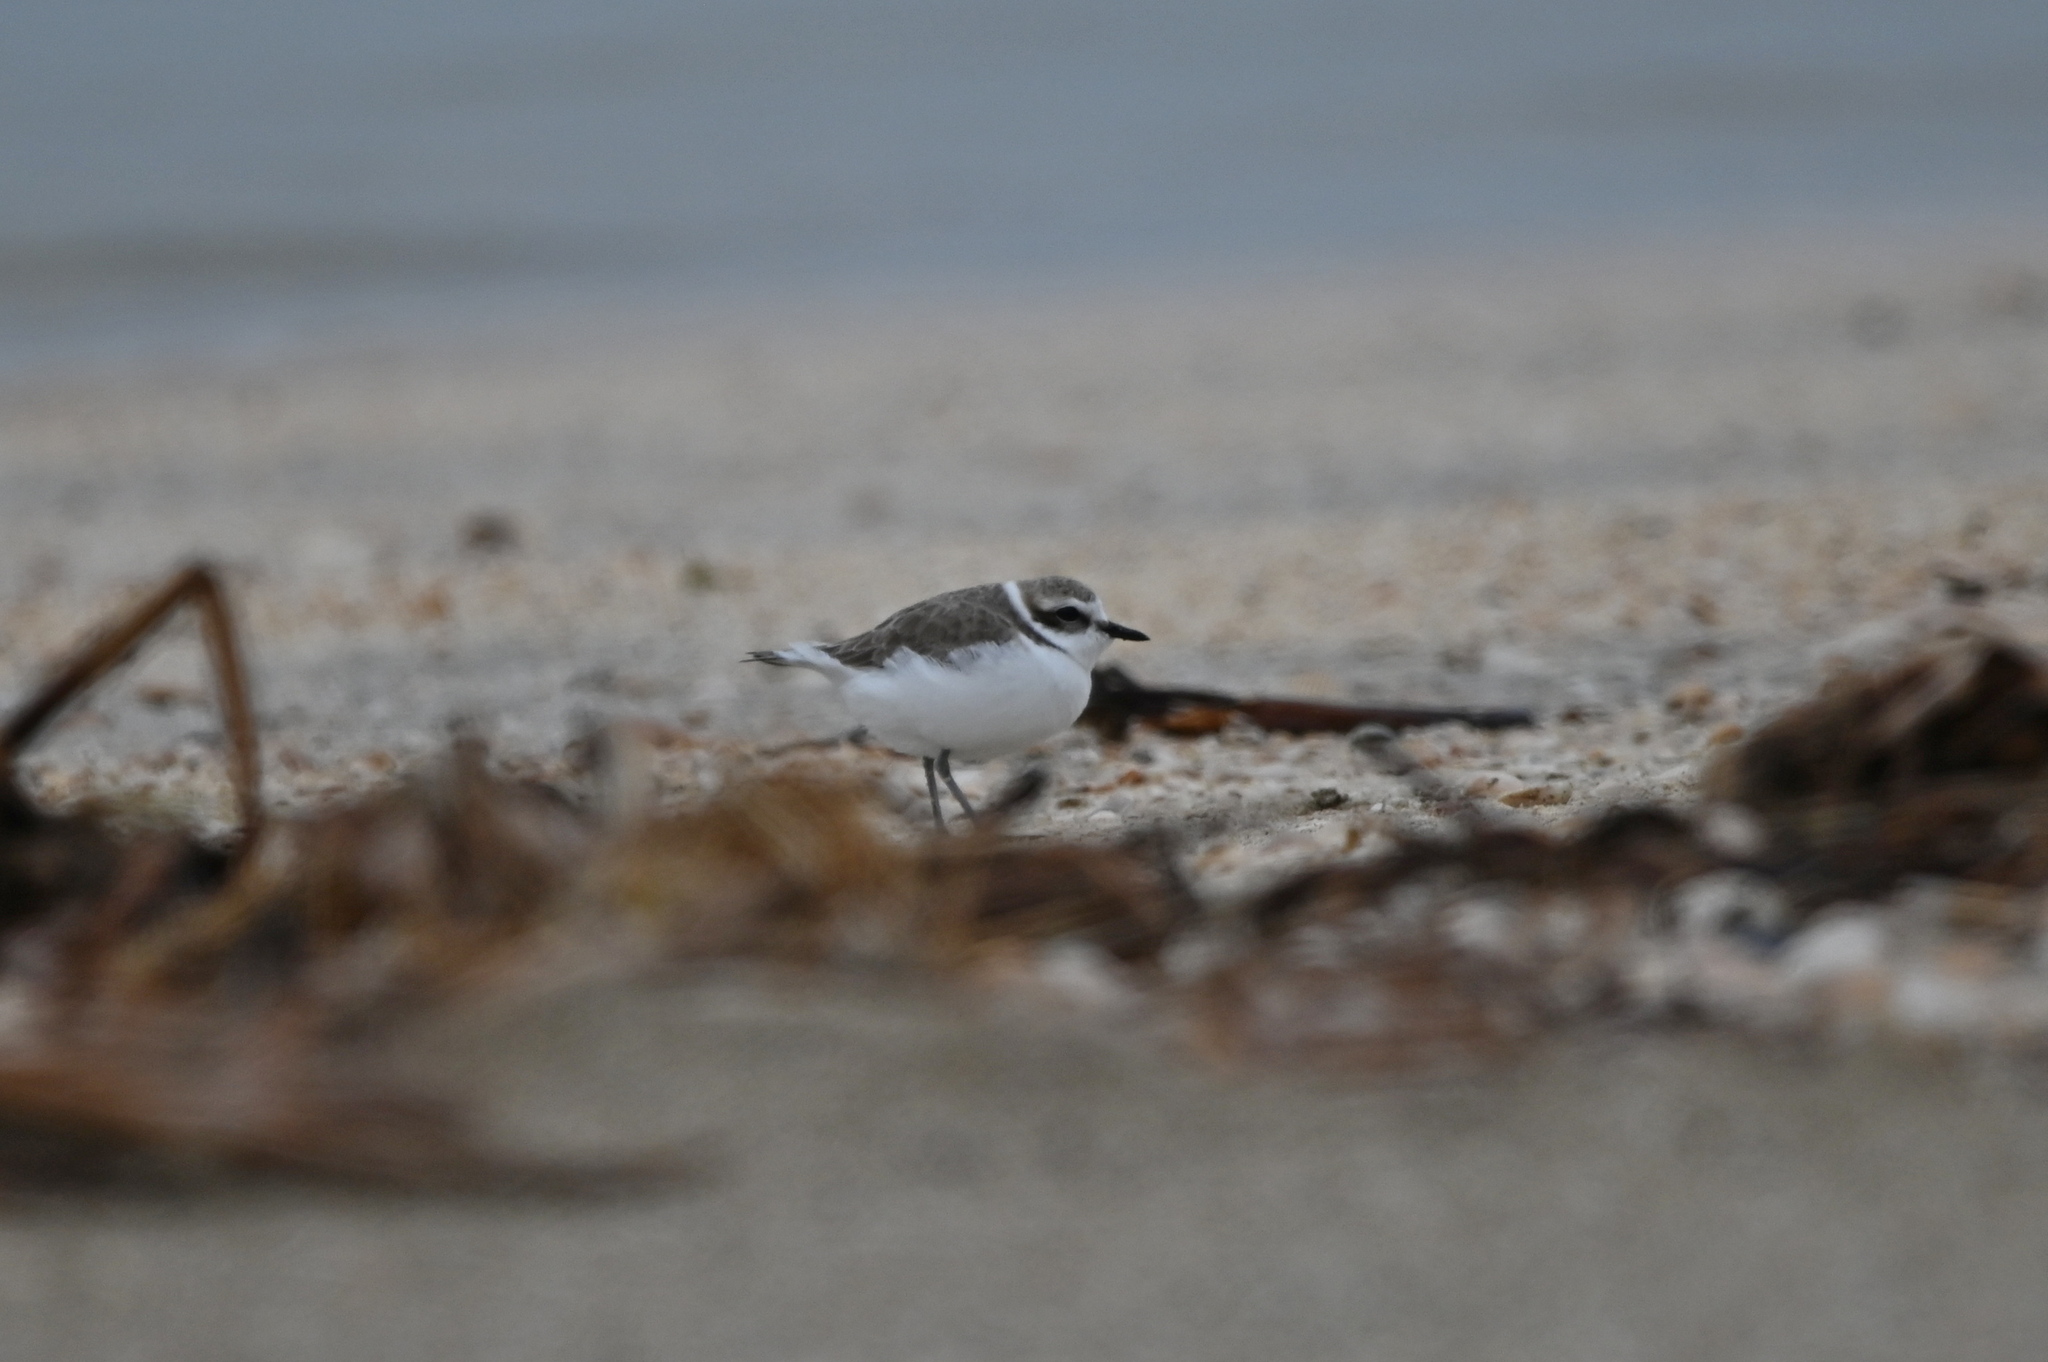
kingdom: Animalia
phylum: Chordata
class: Aves
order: Charadriiformes
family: Charadriidae
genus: Anarhynchus
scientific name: Anarhynchus
